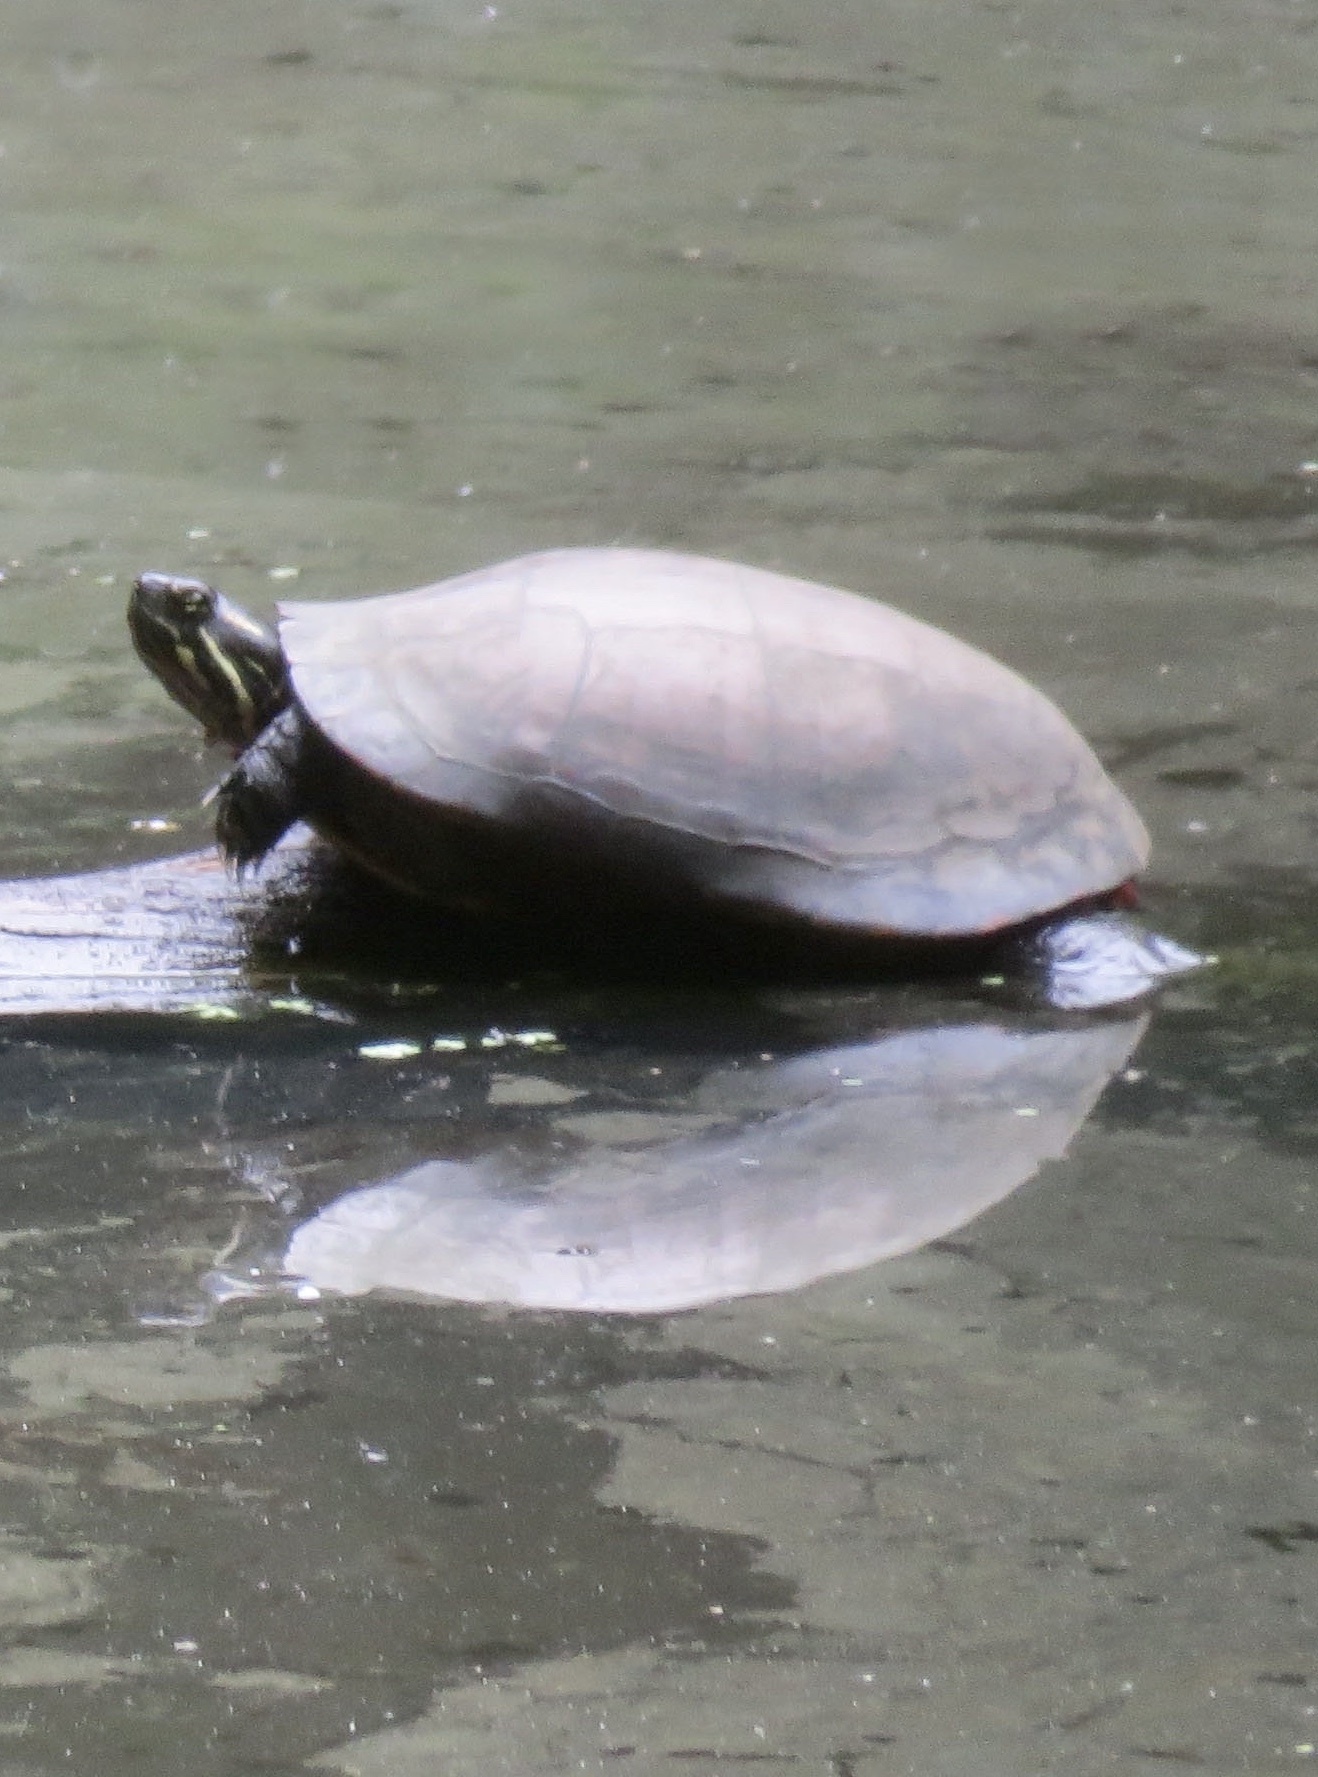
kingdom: Animalia
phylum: Chordata
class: Testudines
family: Emydidae
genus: Chrysemys
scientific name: Chrysemys picta
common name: Painted turtle
